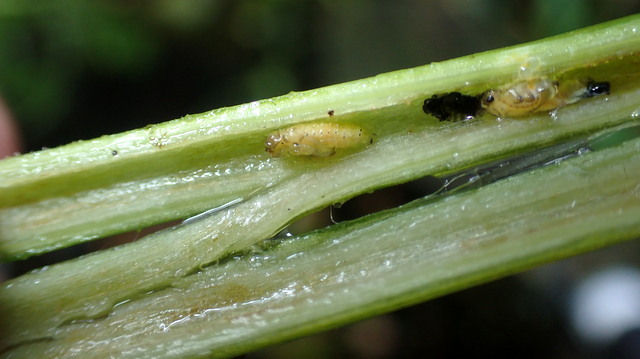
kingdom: Animalia
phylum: Arthropoda
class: Insecta
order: Coleoptera
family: Chrysomelidae
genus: Agasicles
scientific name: Agasicles hygrophila
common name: Alligatorweed flea beetle
